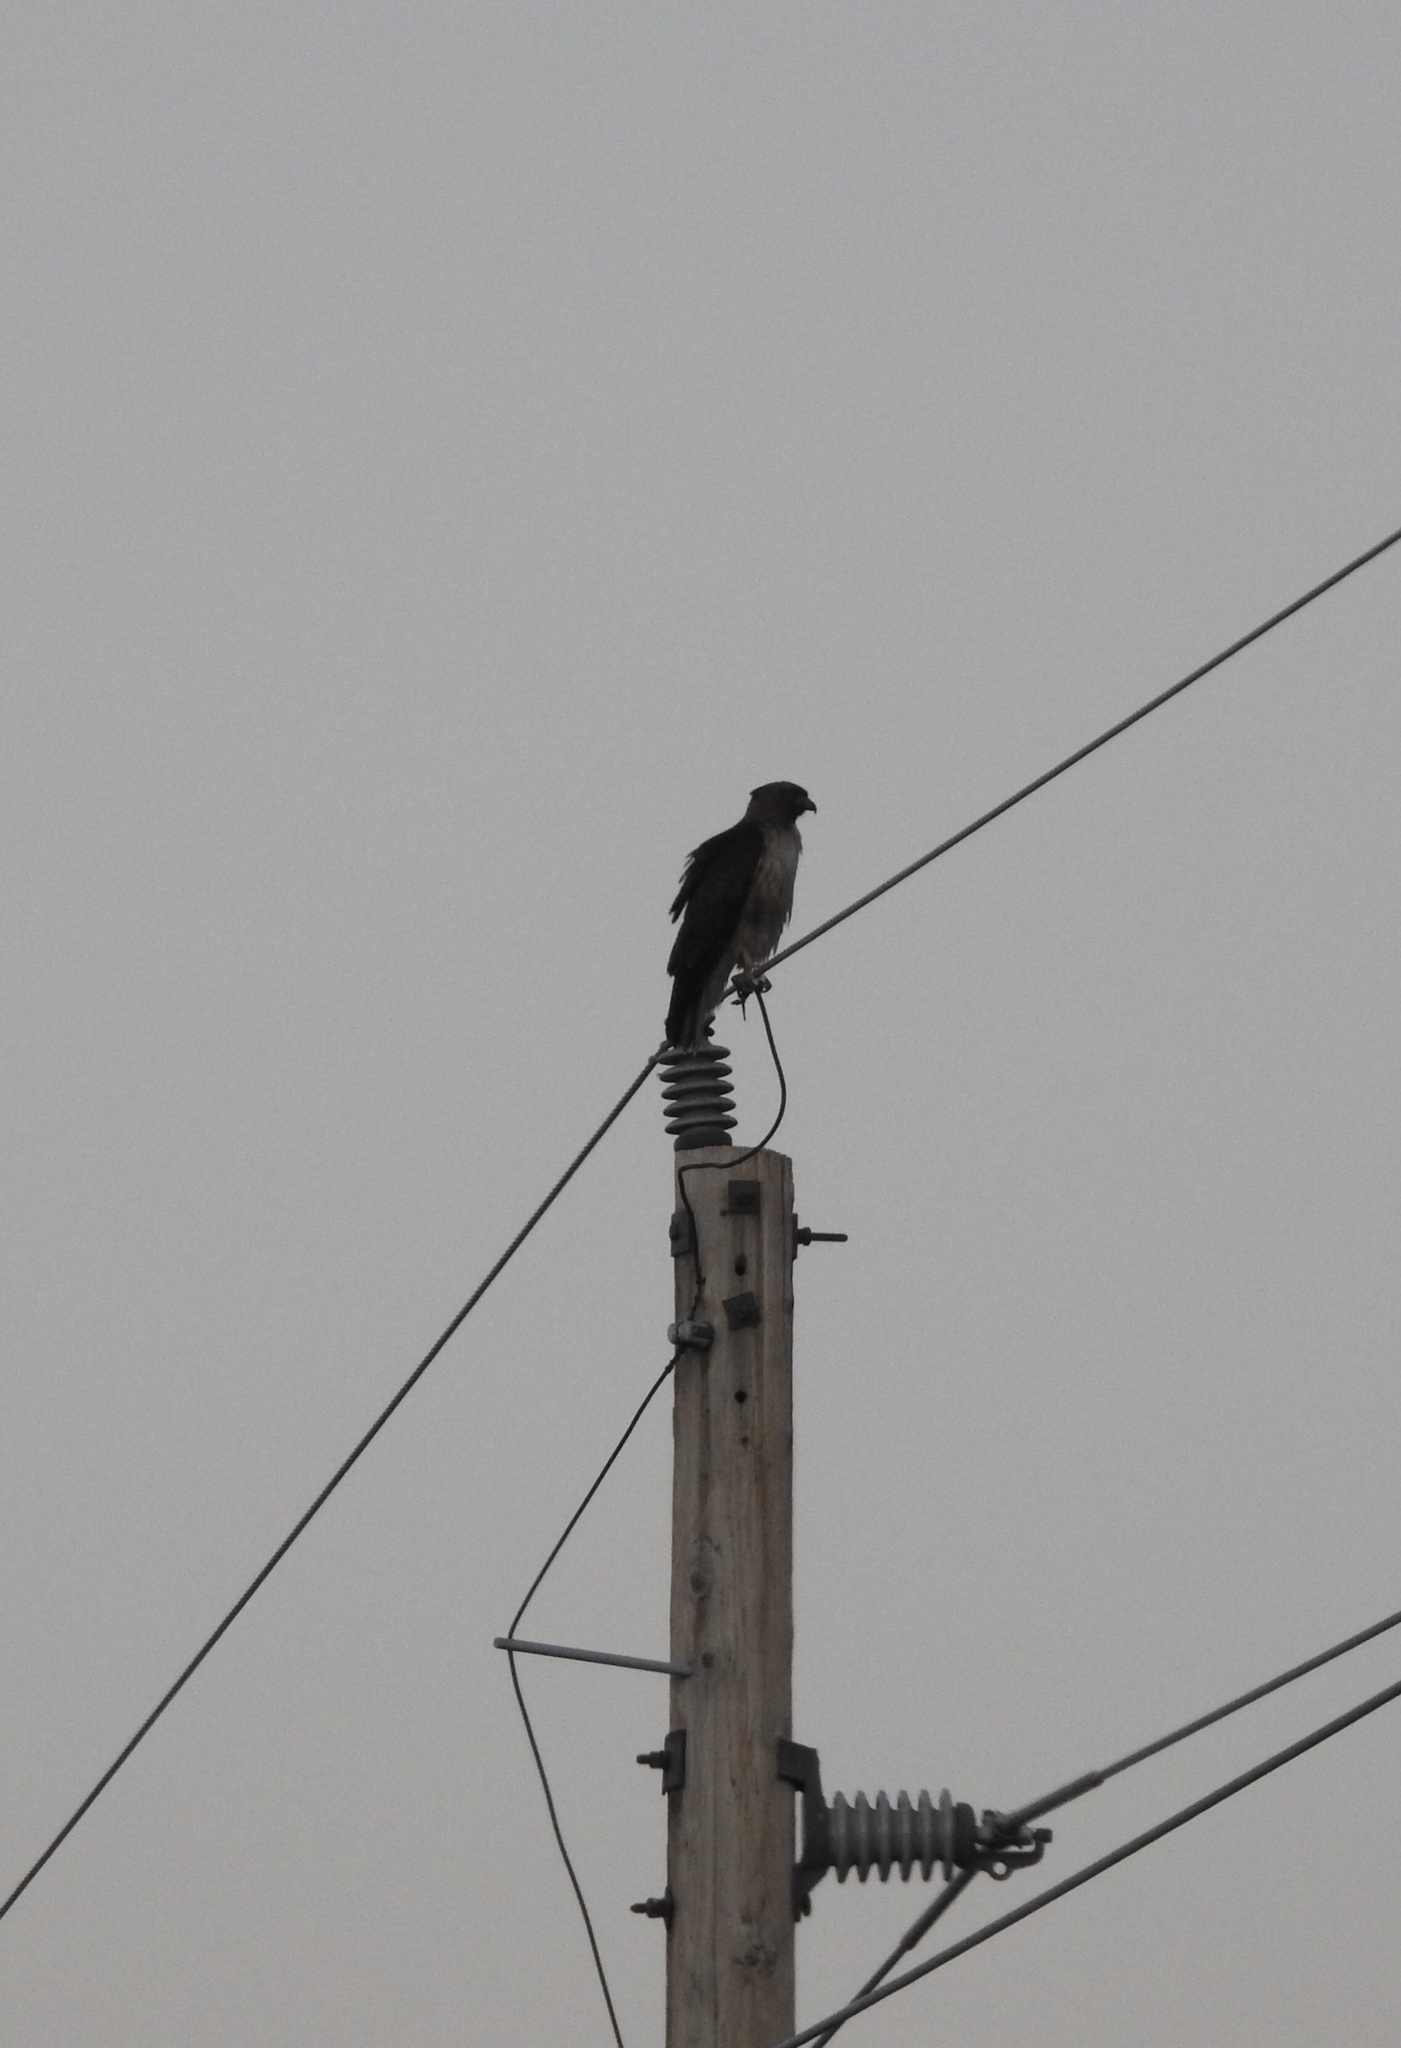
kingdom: Animalia
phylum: Chordata
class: Aves
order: Accipitriformes
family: Accipitridae
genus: Buteo
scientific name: Buteo jamaicensis
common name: Red-tailed hawk
